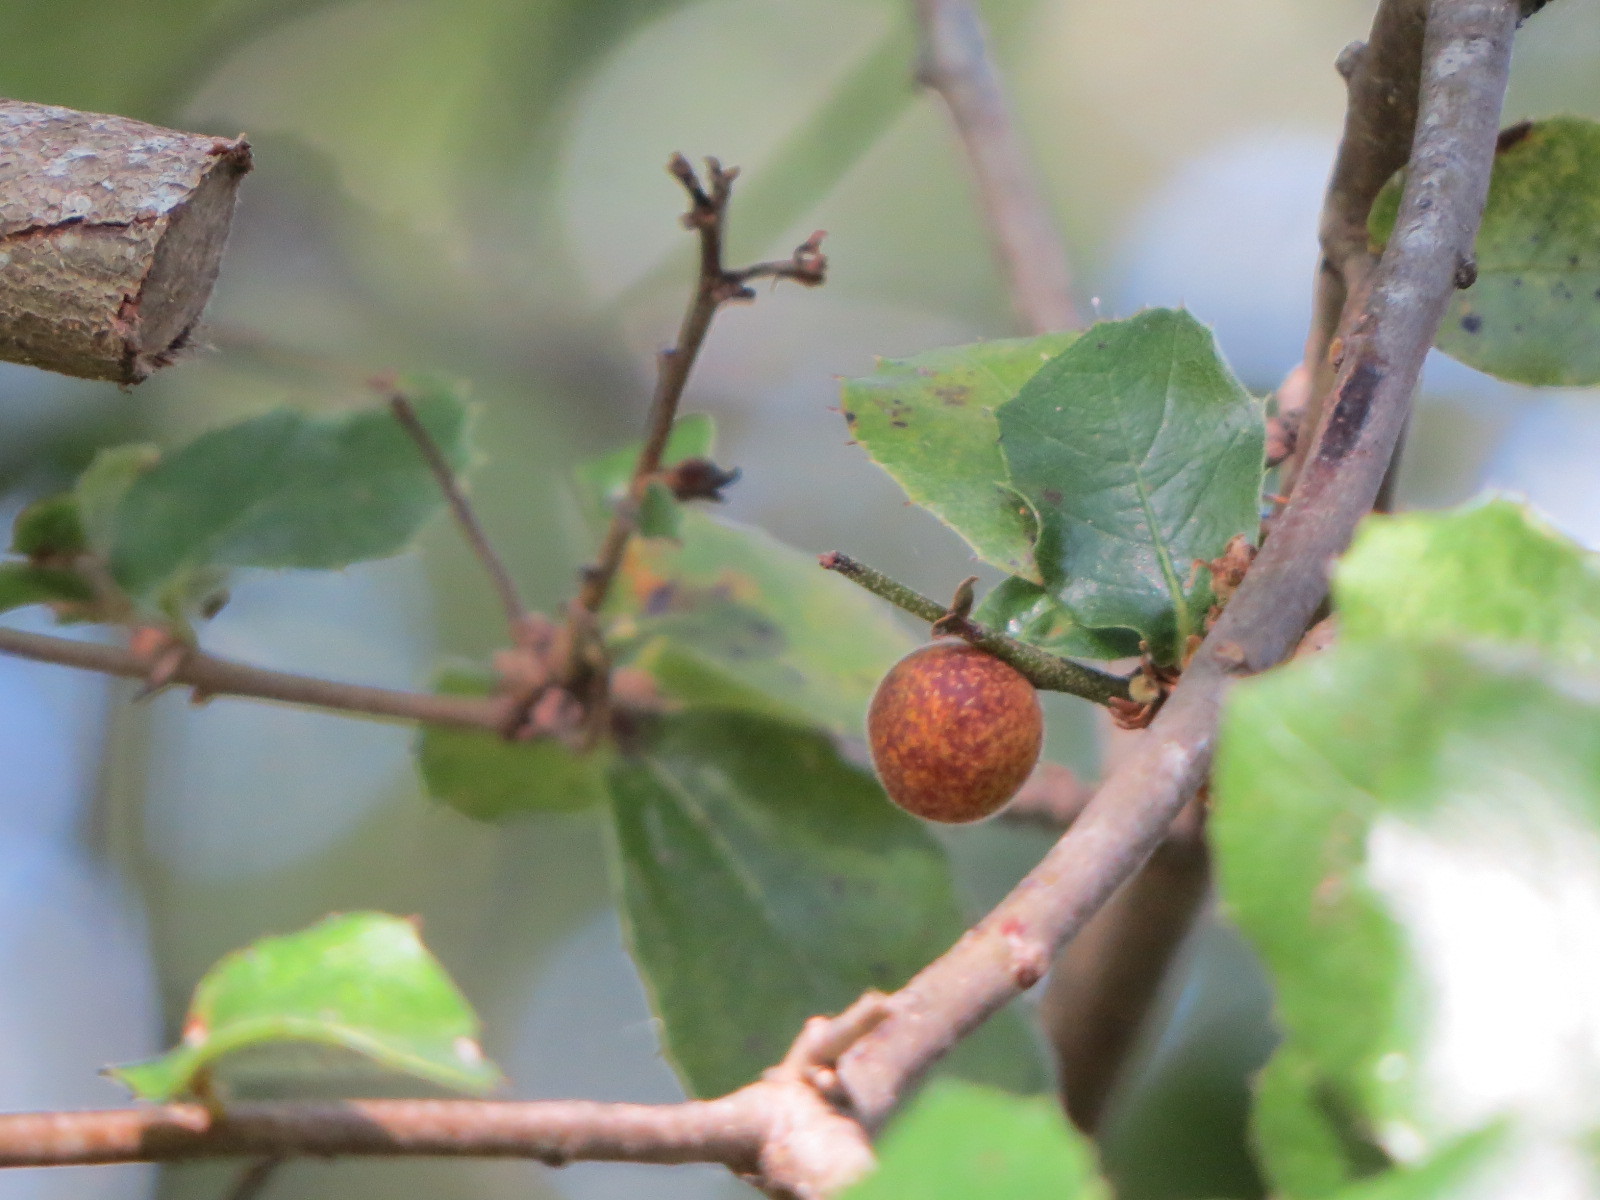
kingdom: Animalia
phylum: Arthropoda
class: Insecta
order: Hymenoptera
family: Cynipidae
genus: Callirhytis
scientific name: Callirhytis
